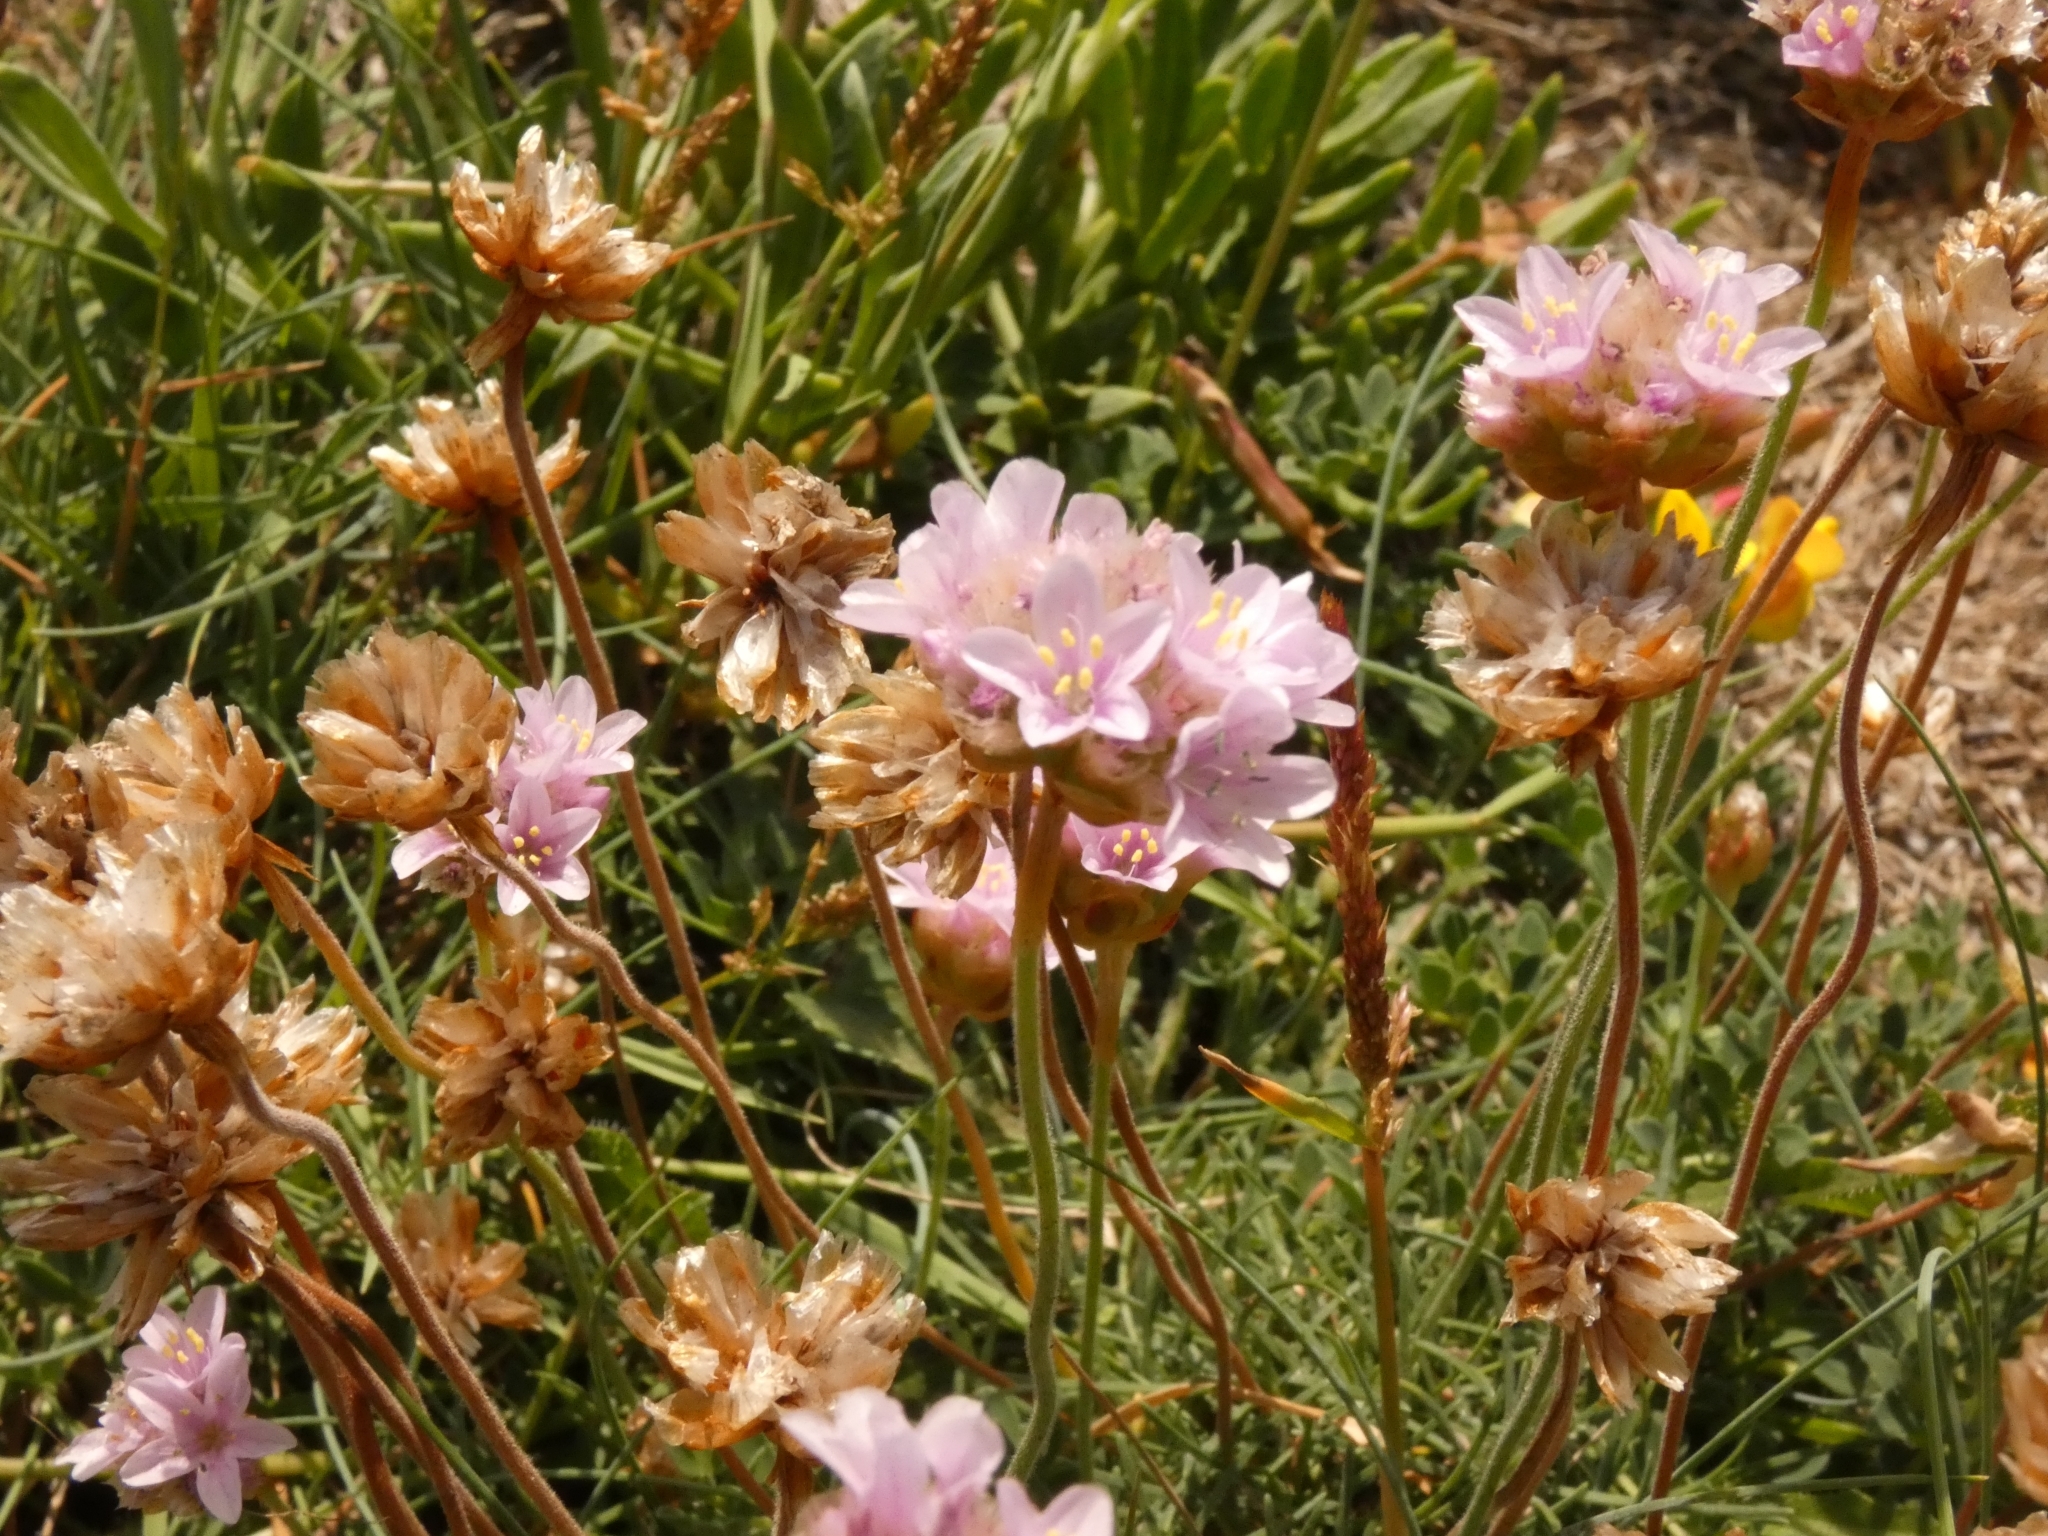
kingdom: Plantae
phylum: Tracheophyta
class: Magnoliopsida
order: Caryophyllales
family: Plumbaginaceae
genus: Armeria
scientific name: Armeria maritima
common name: Thrift
